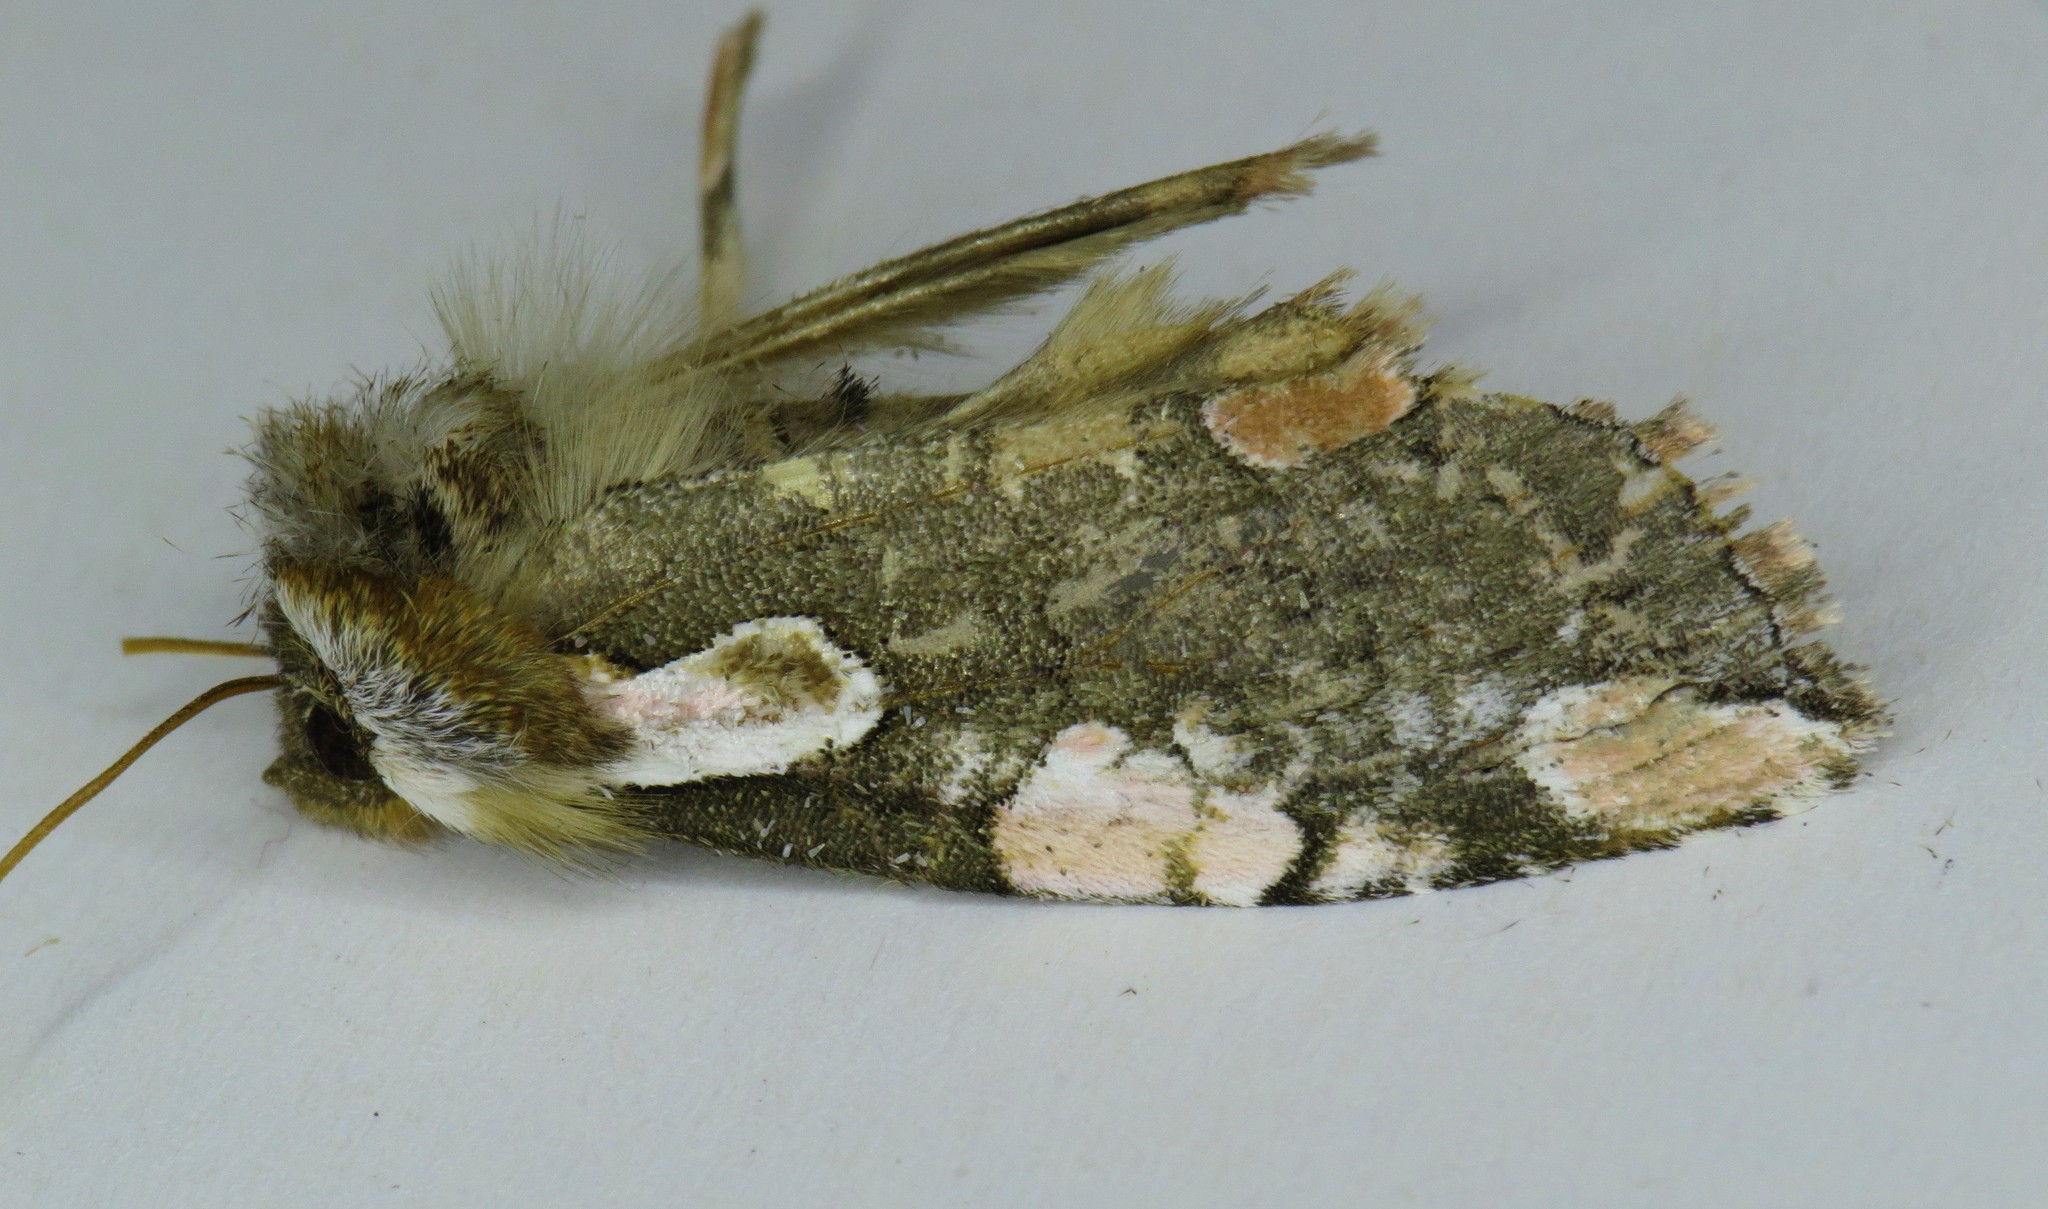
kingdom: Animalia
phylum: Arthropoda
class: Insecta
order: Lepidoptera
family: Drepanidae
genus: Euthyatira
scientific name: Euthyatira pudens
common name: Dogwood thyatirid moth
